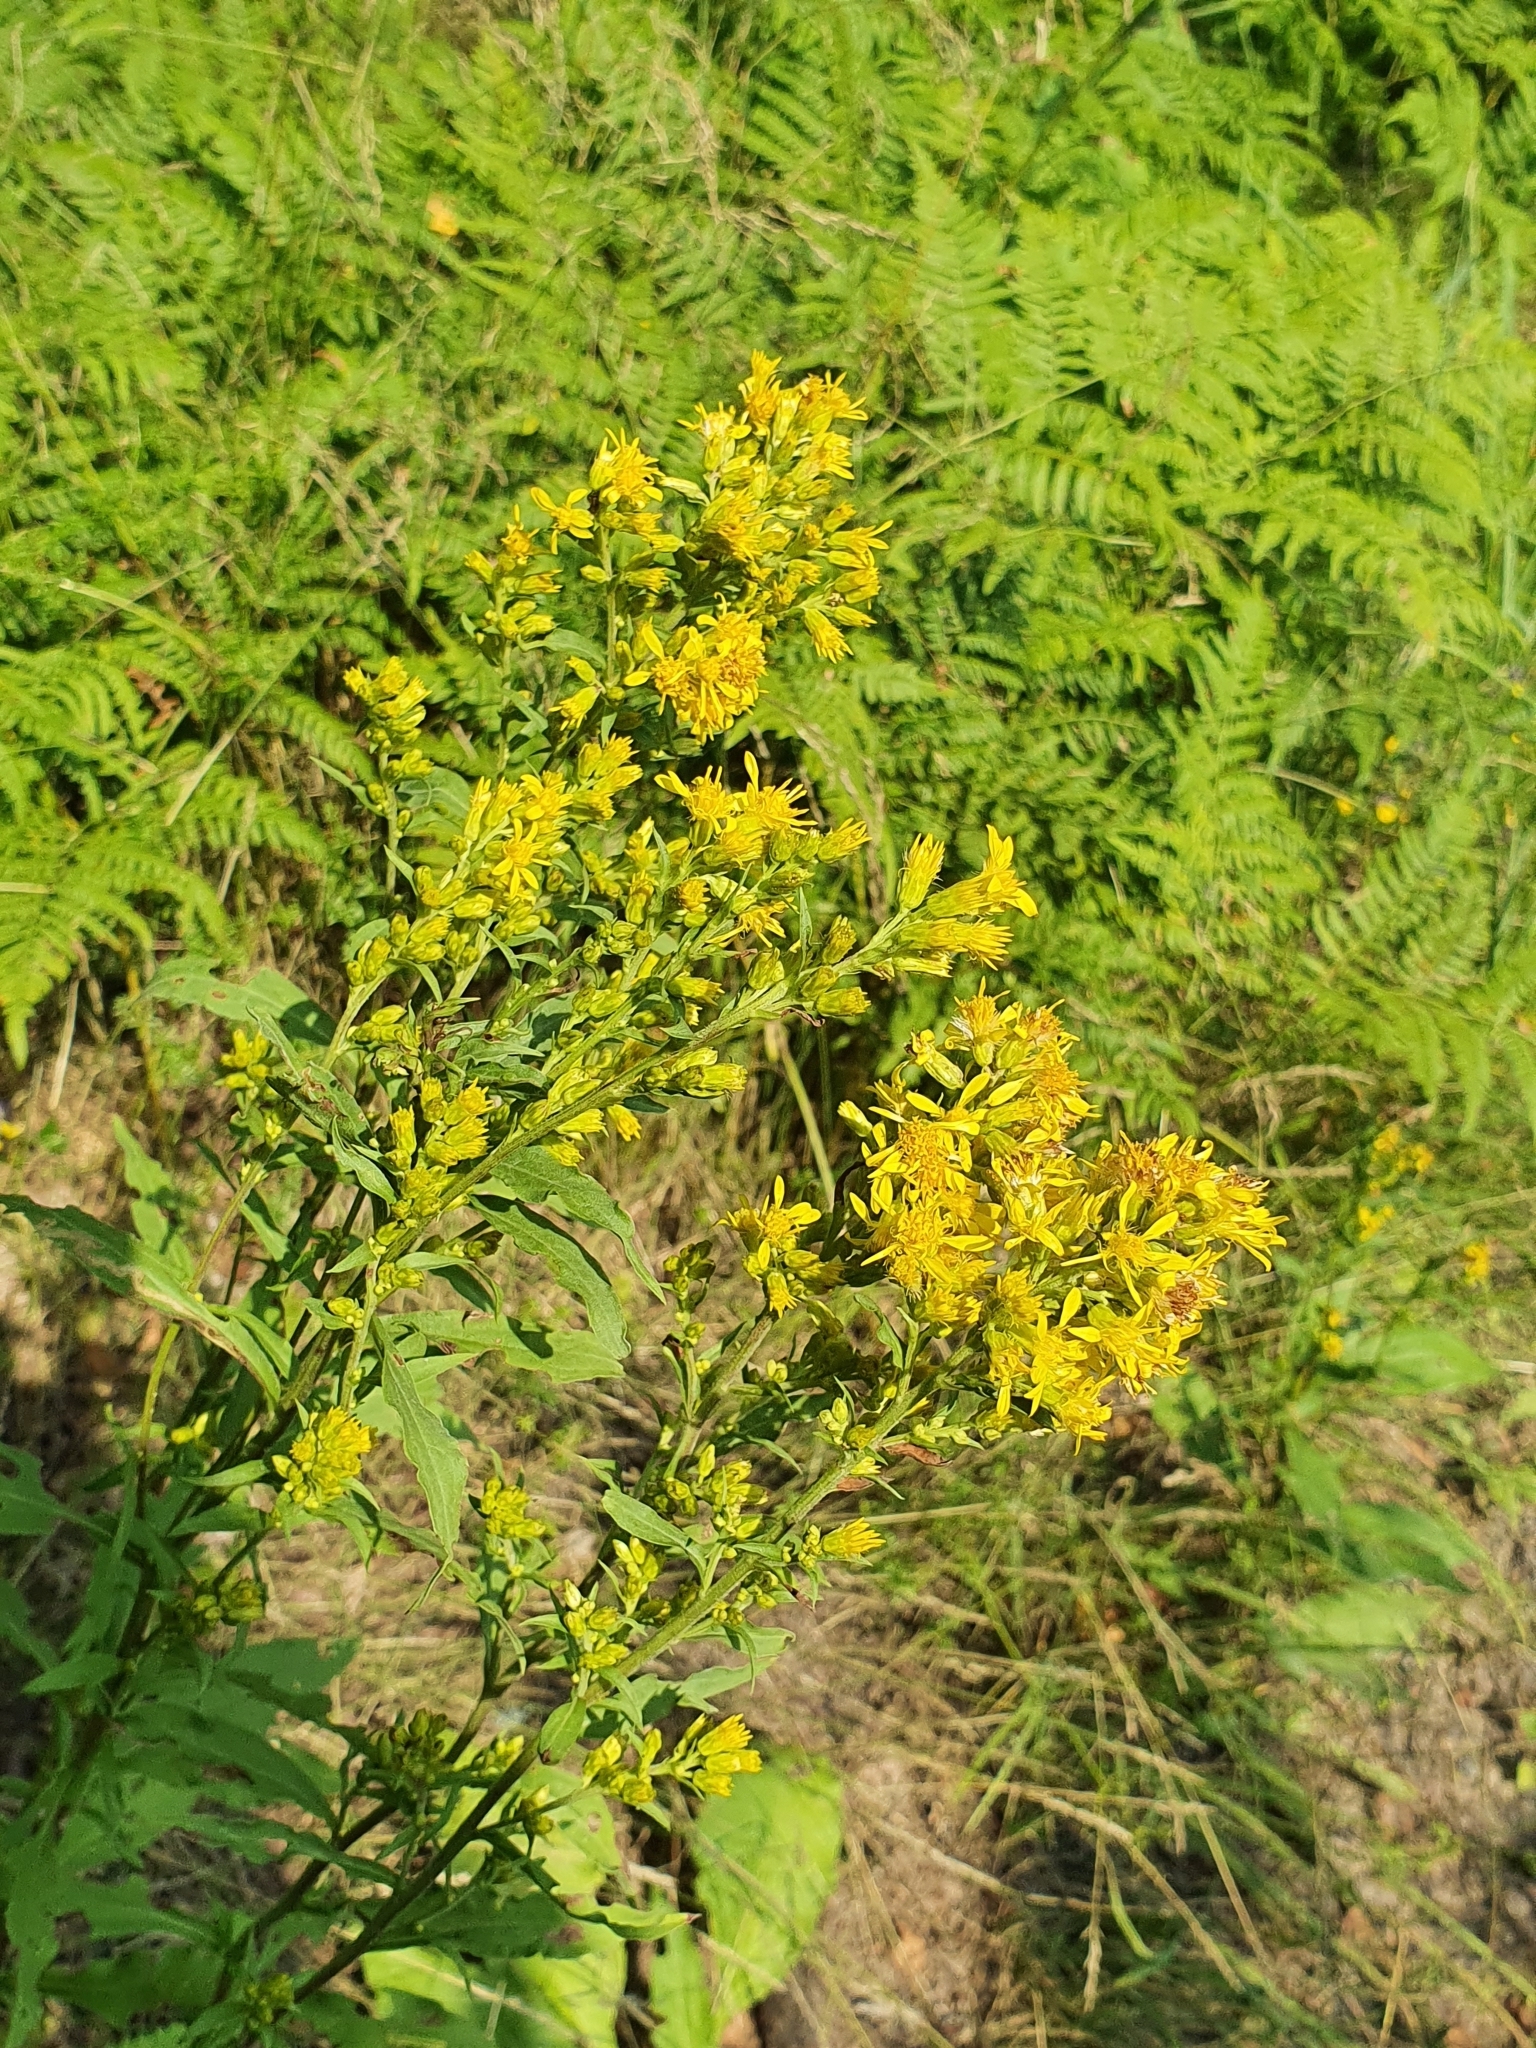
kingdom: Plantae
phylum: Tracheophyta
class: Magnoliopsida
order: Asterales
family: Asteraceae
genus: Solidago
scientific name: Solidago virgaurea
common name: Goldenrod
